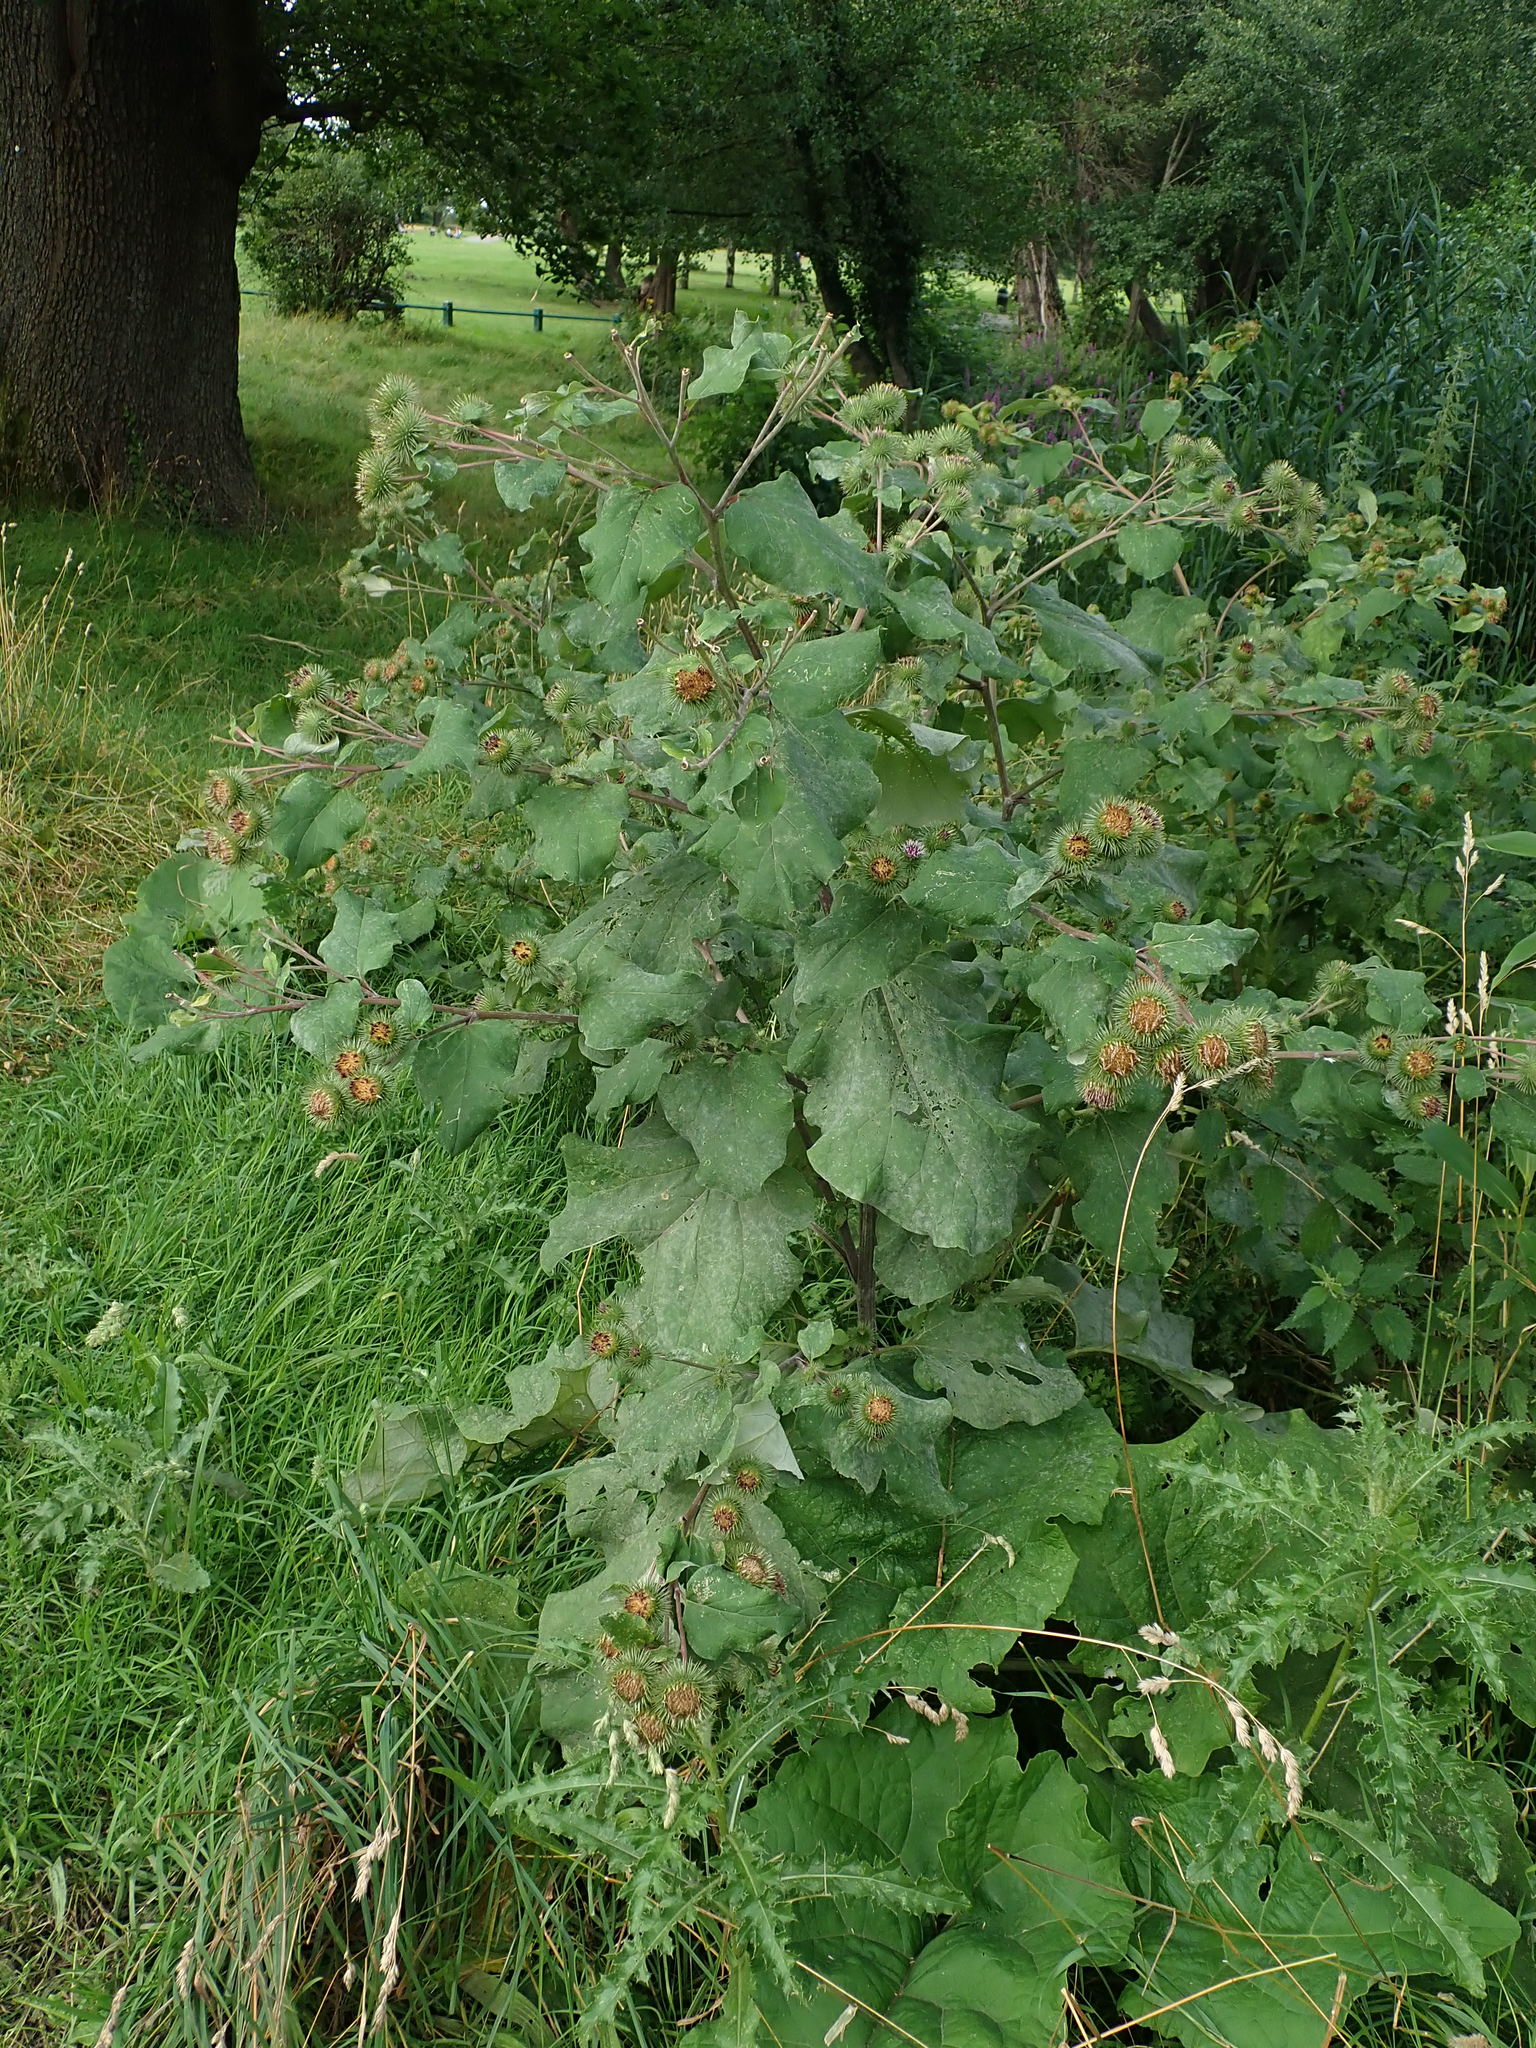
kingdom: Plantae
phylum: Tracheophyta
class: Magnoliopsida
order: Asterales
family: Asteraceae
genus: Arctium
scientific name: Arctium lappa
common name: Greater burdock
